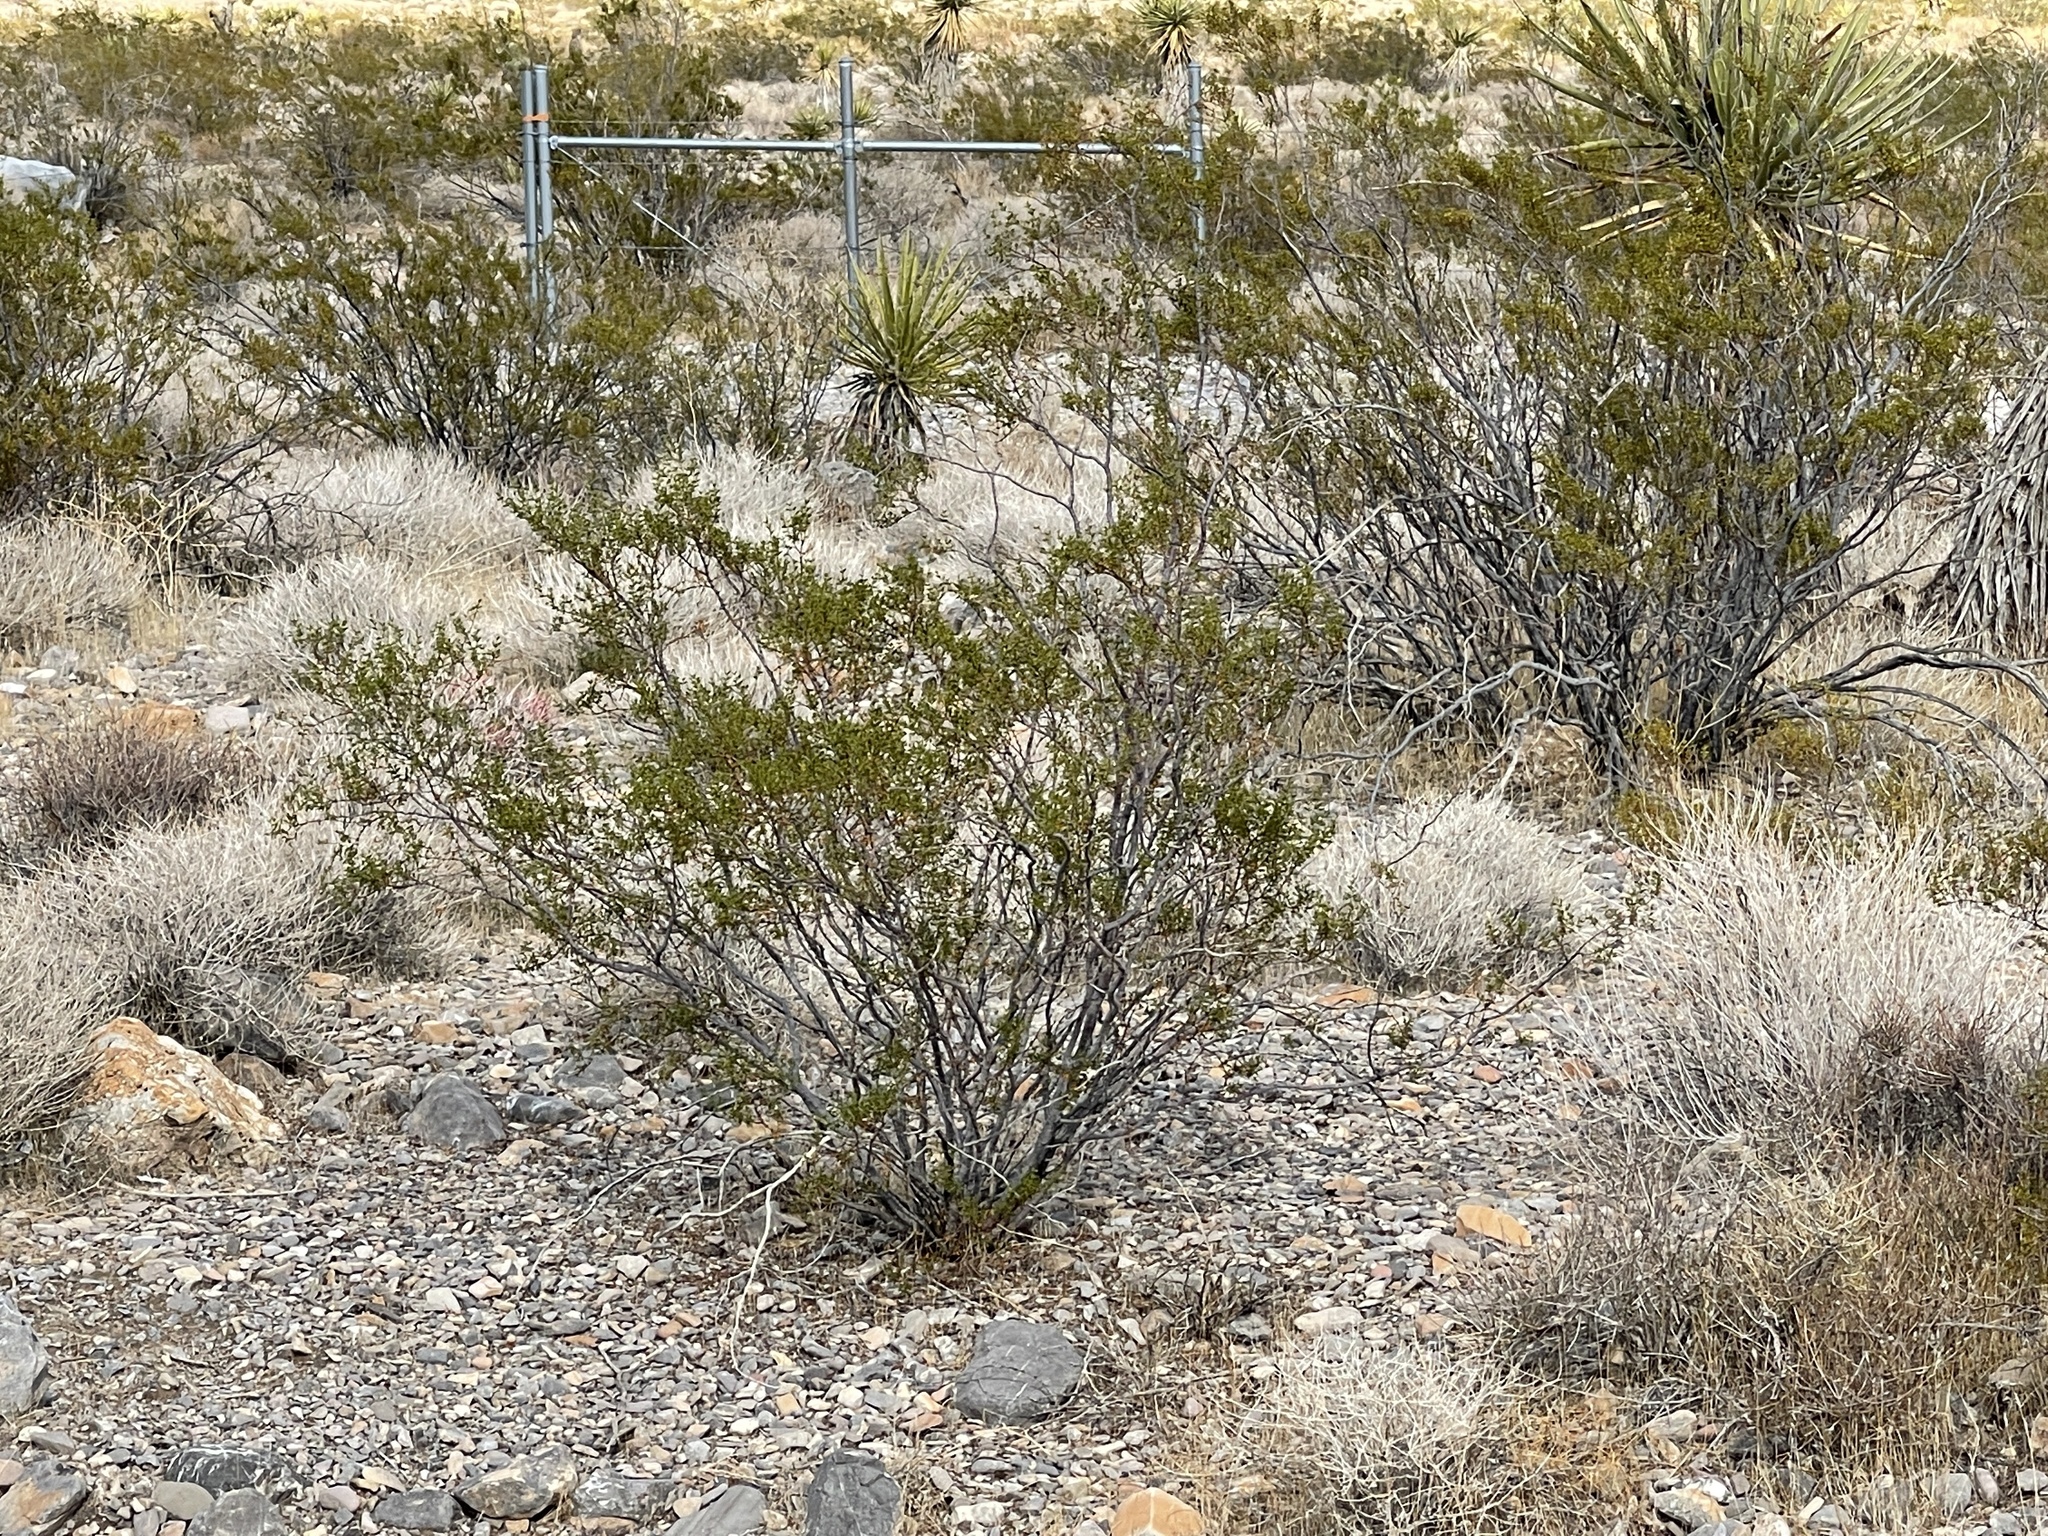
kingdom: Plantae
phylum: Tracheophyta
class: Magnoliopsida
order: Zygophyllales
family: Zygophyllaceae
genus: Larrea
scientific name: Larrea tridentata
